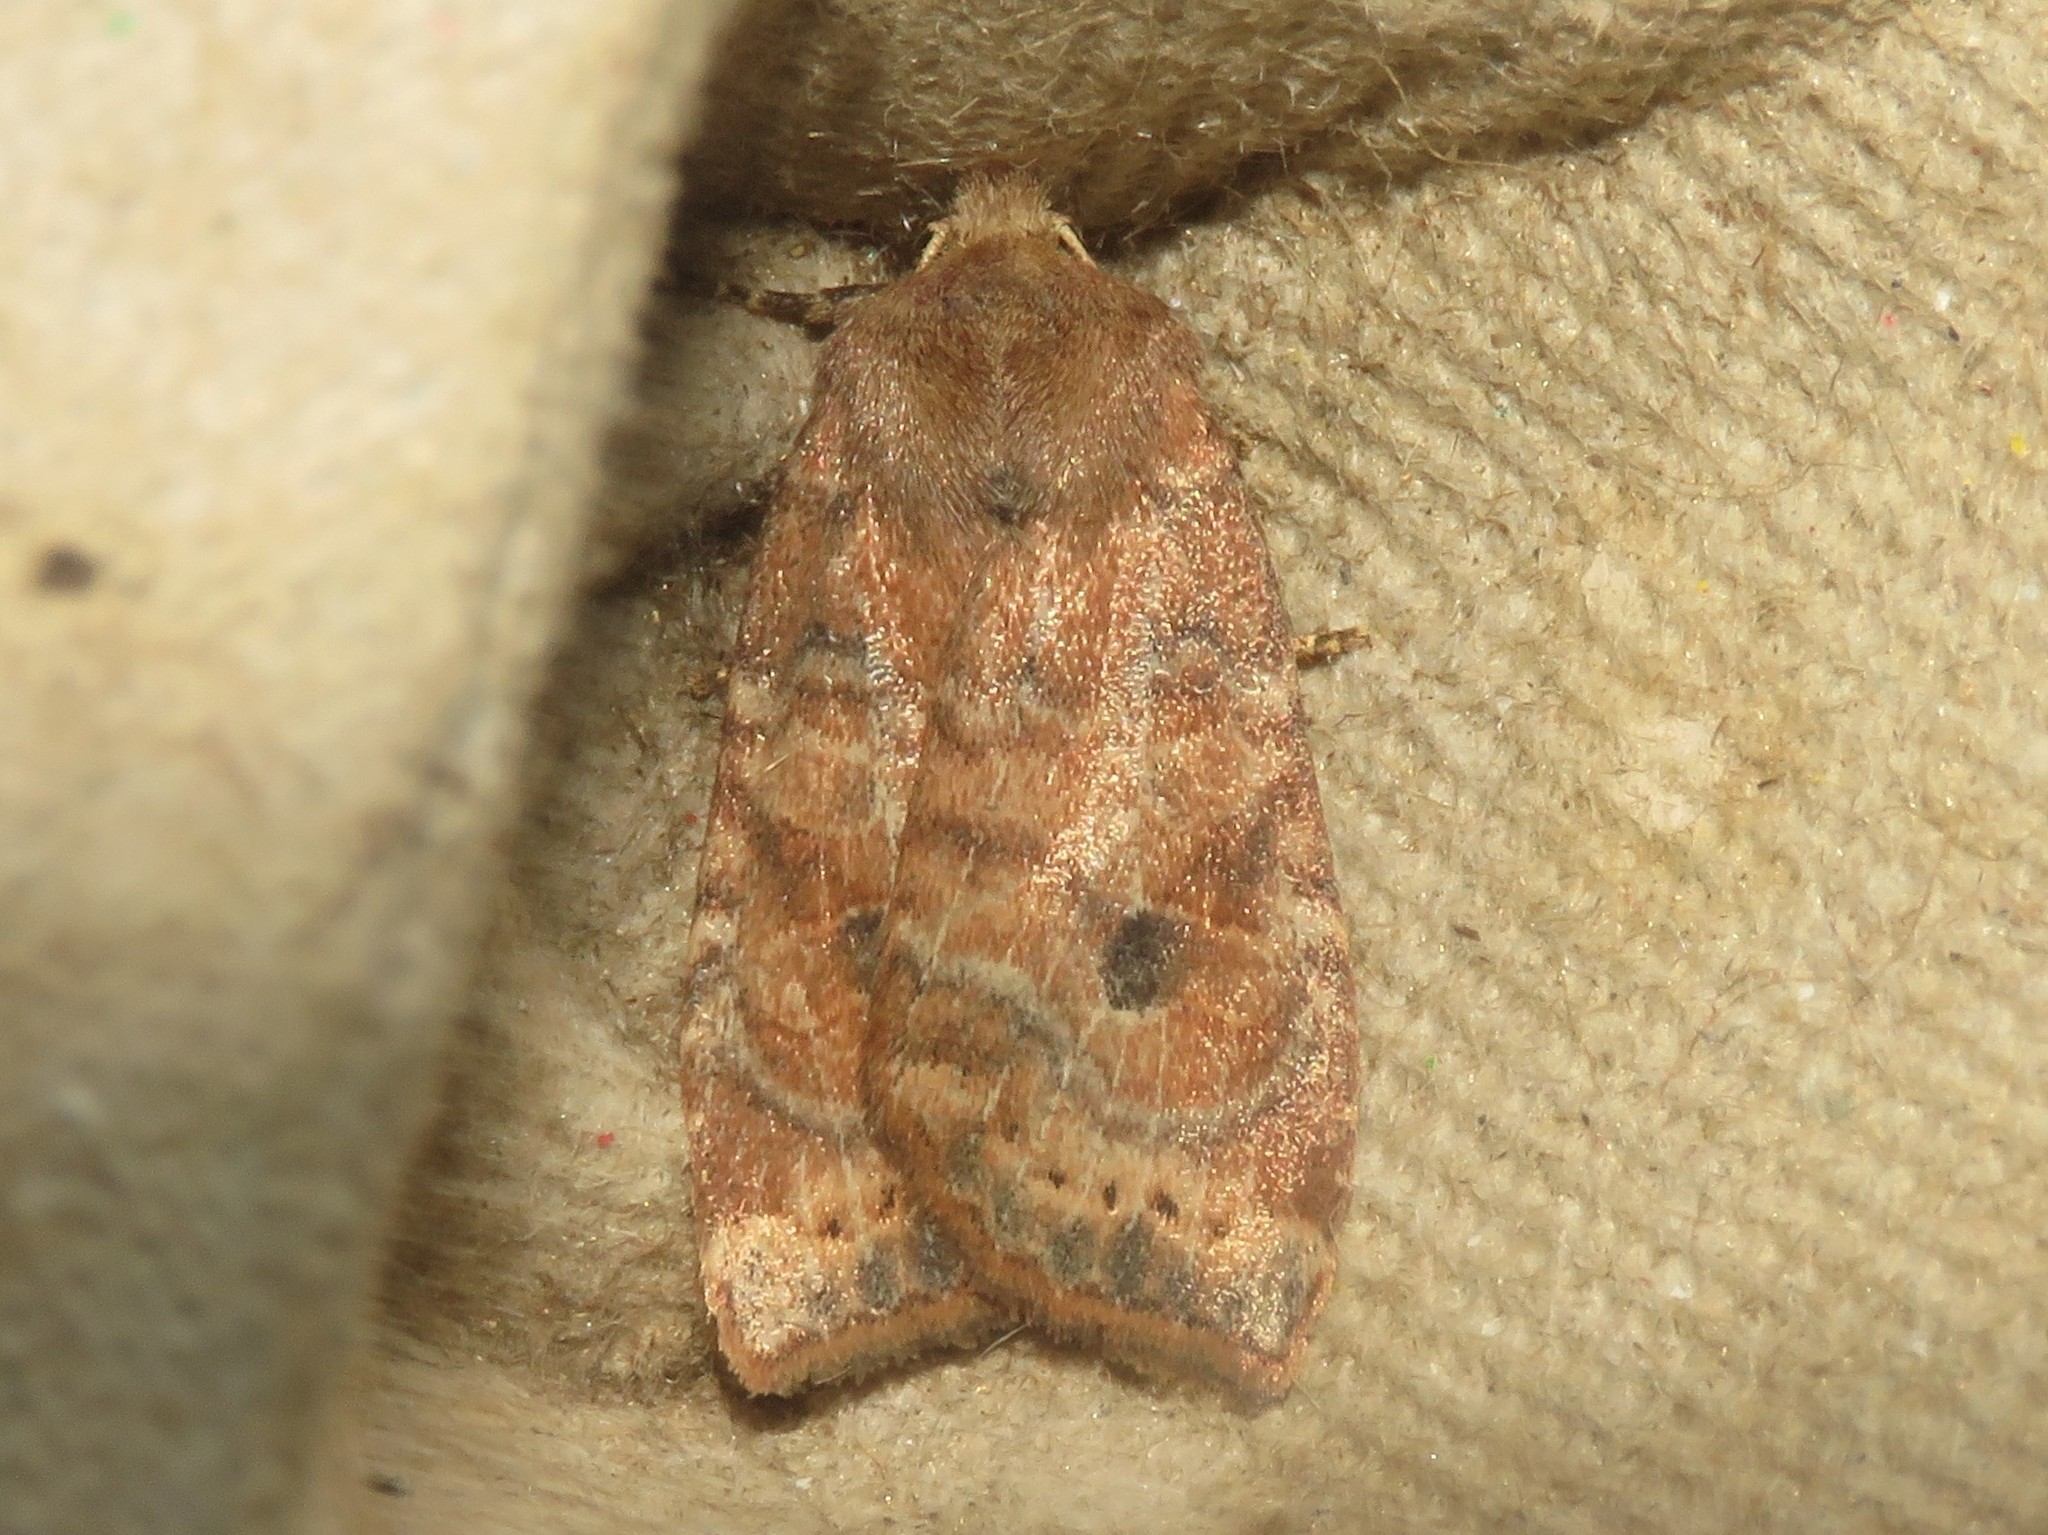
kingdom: Animalia
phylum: Arthropoda
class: Insecta
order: Lepidoptera
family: Noctuidae
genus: Anathix
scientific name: Anathix puta
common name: Puta sallow
